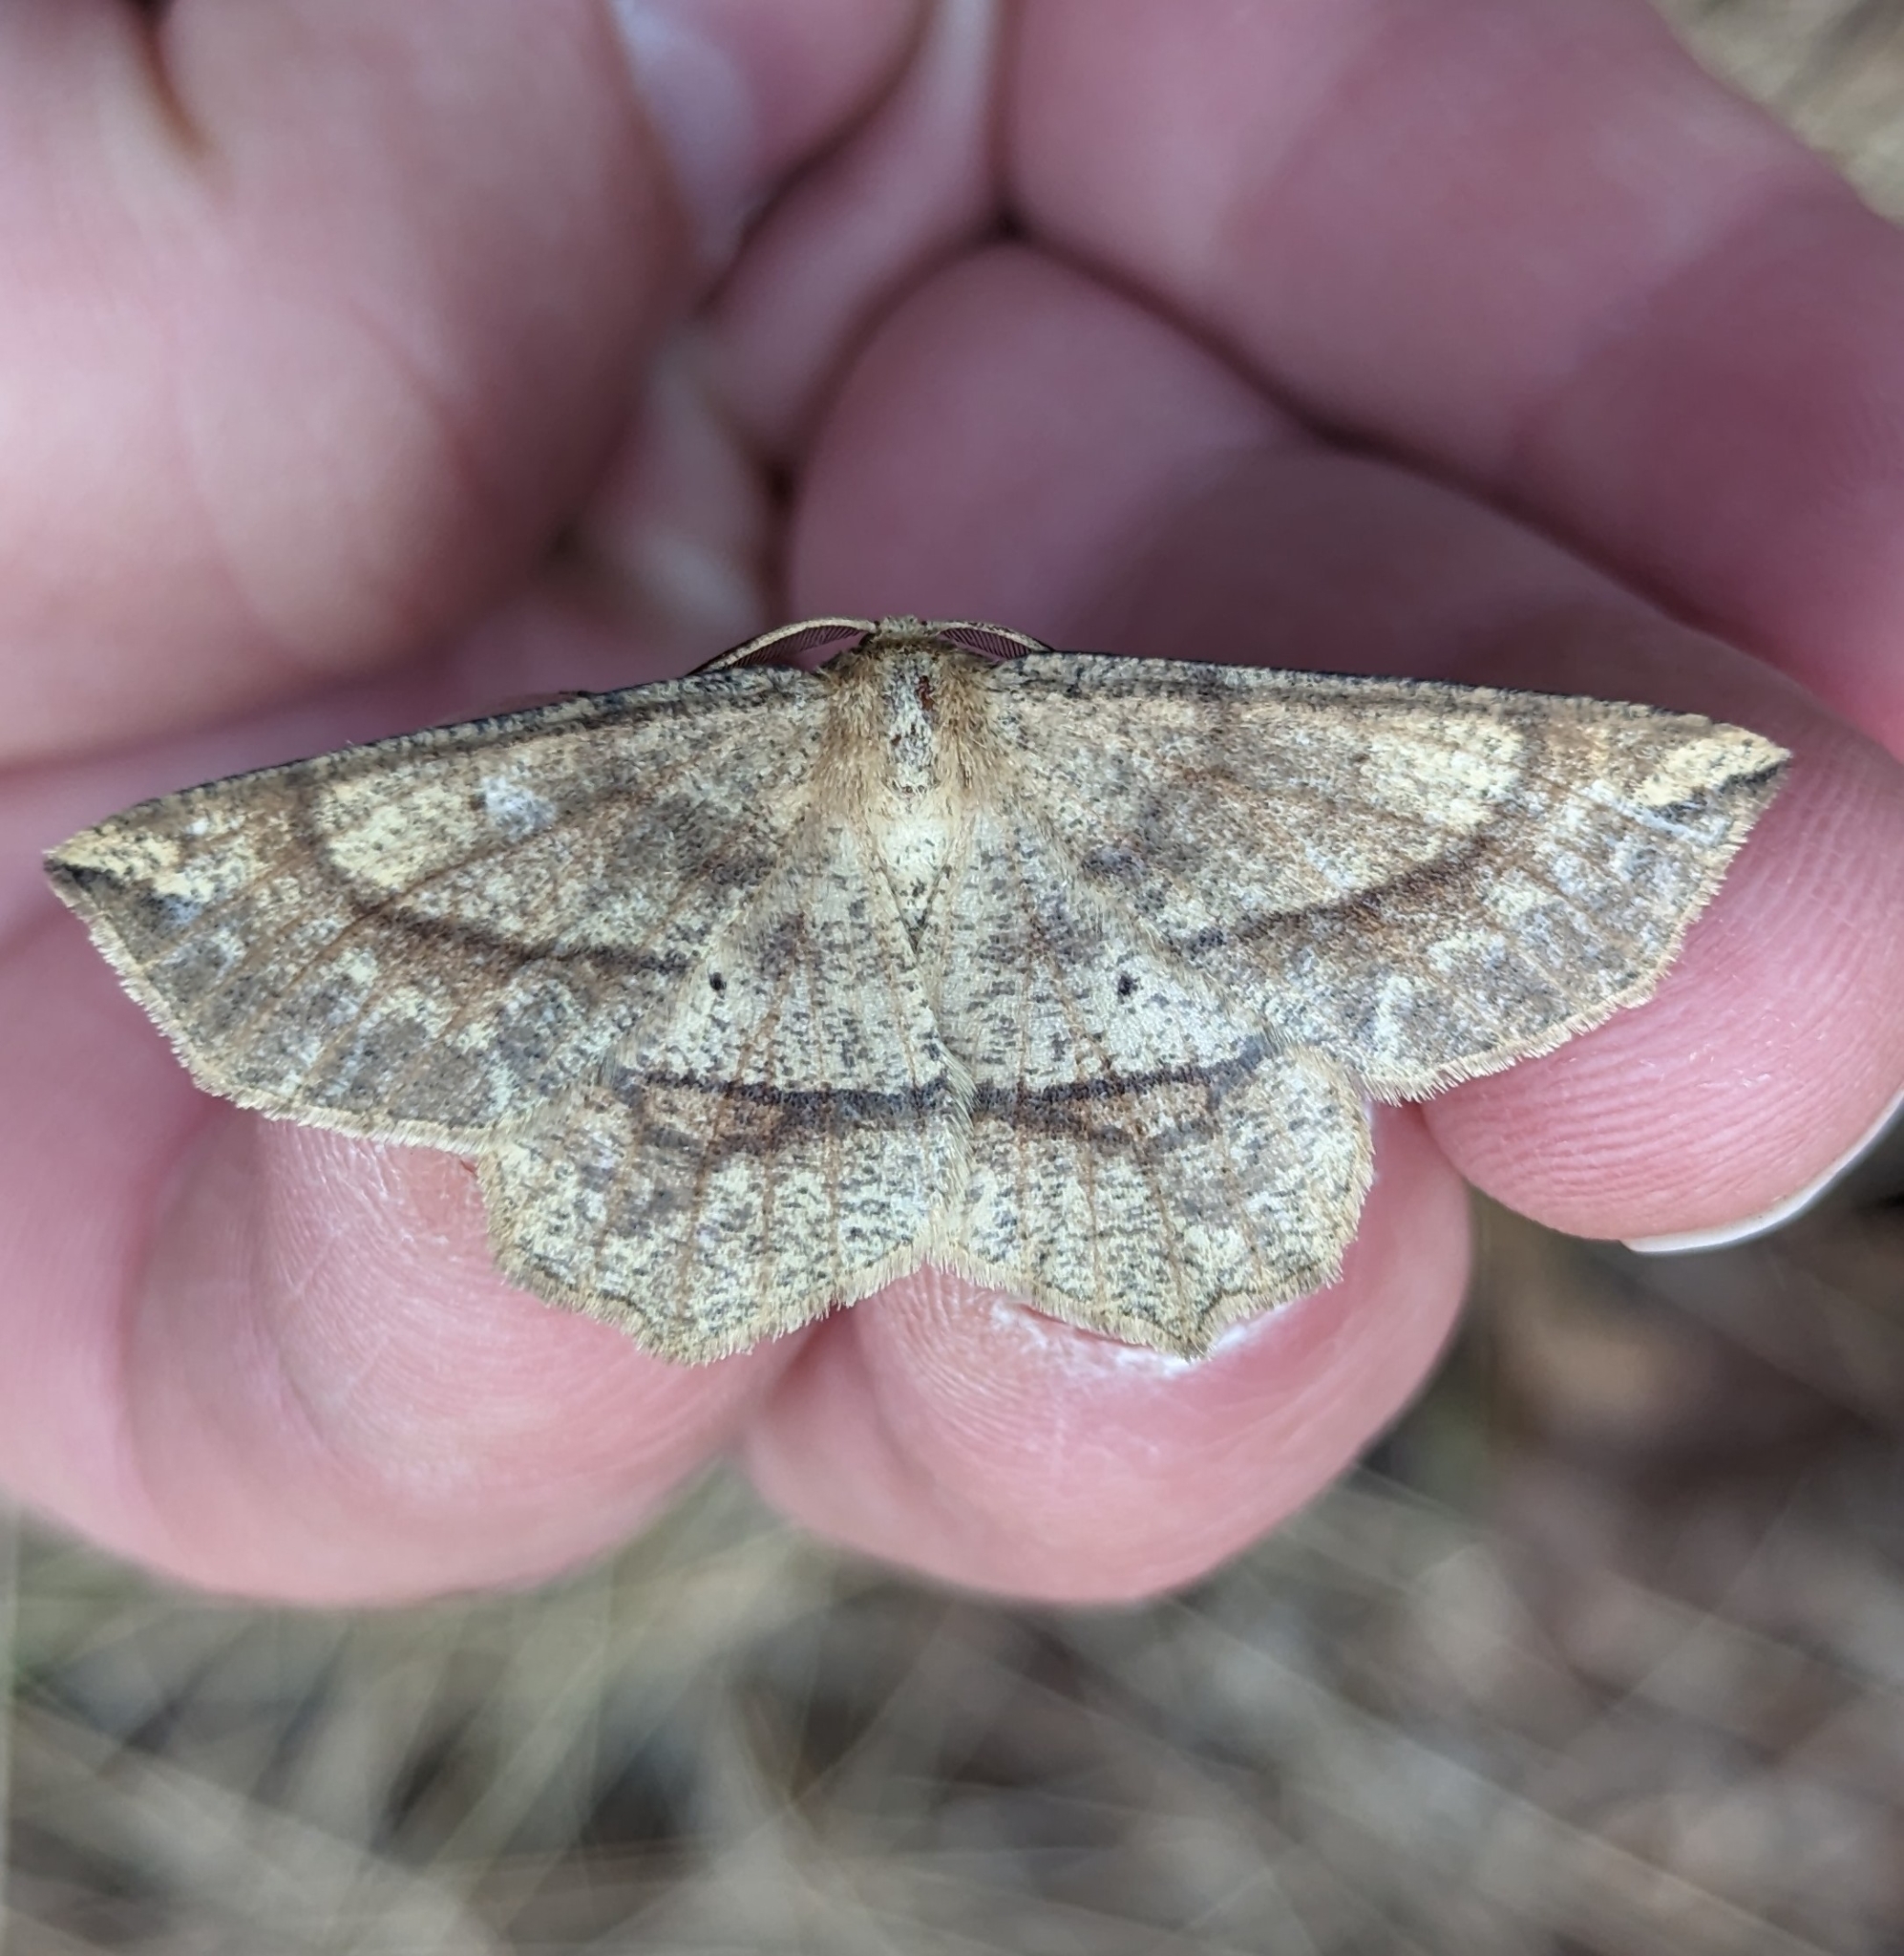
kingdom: Animalia
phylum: Arthropoda
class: Insecta
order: Lepidoptera
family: Geometridae
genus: Euchlaena
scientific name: Euchlaena marginaria
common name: Ochre euchlaena moth
